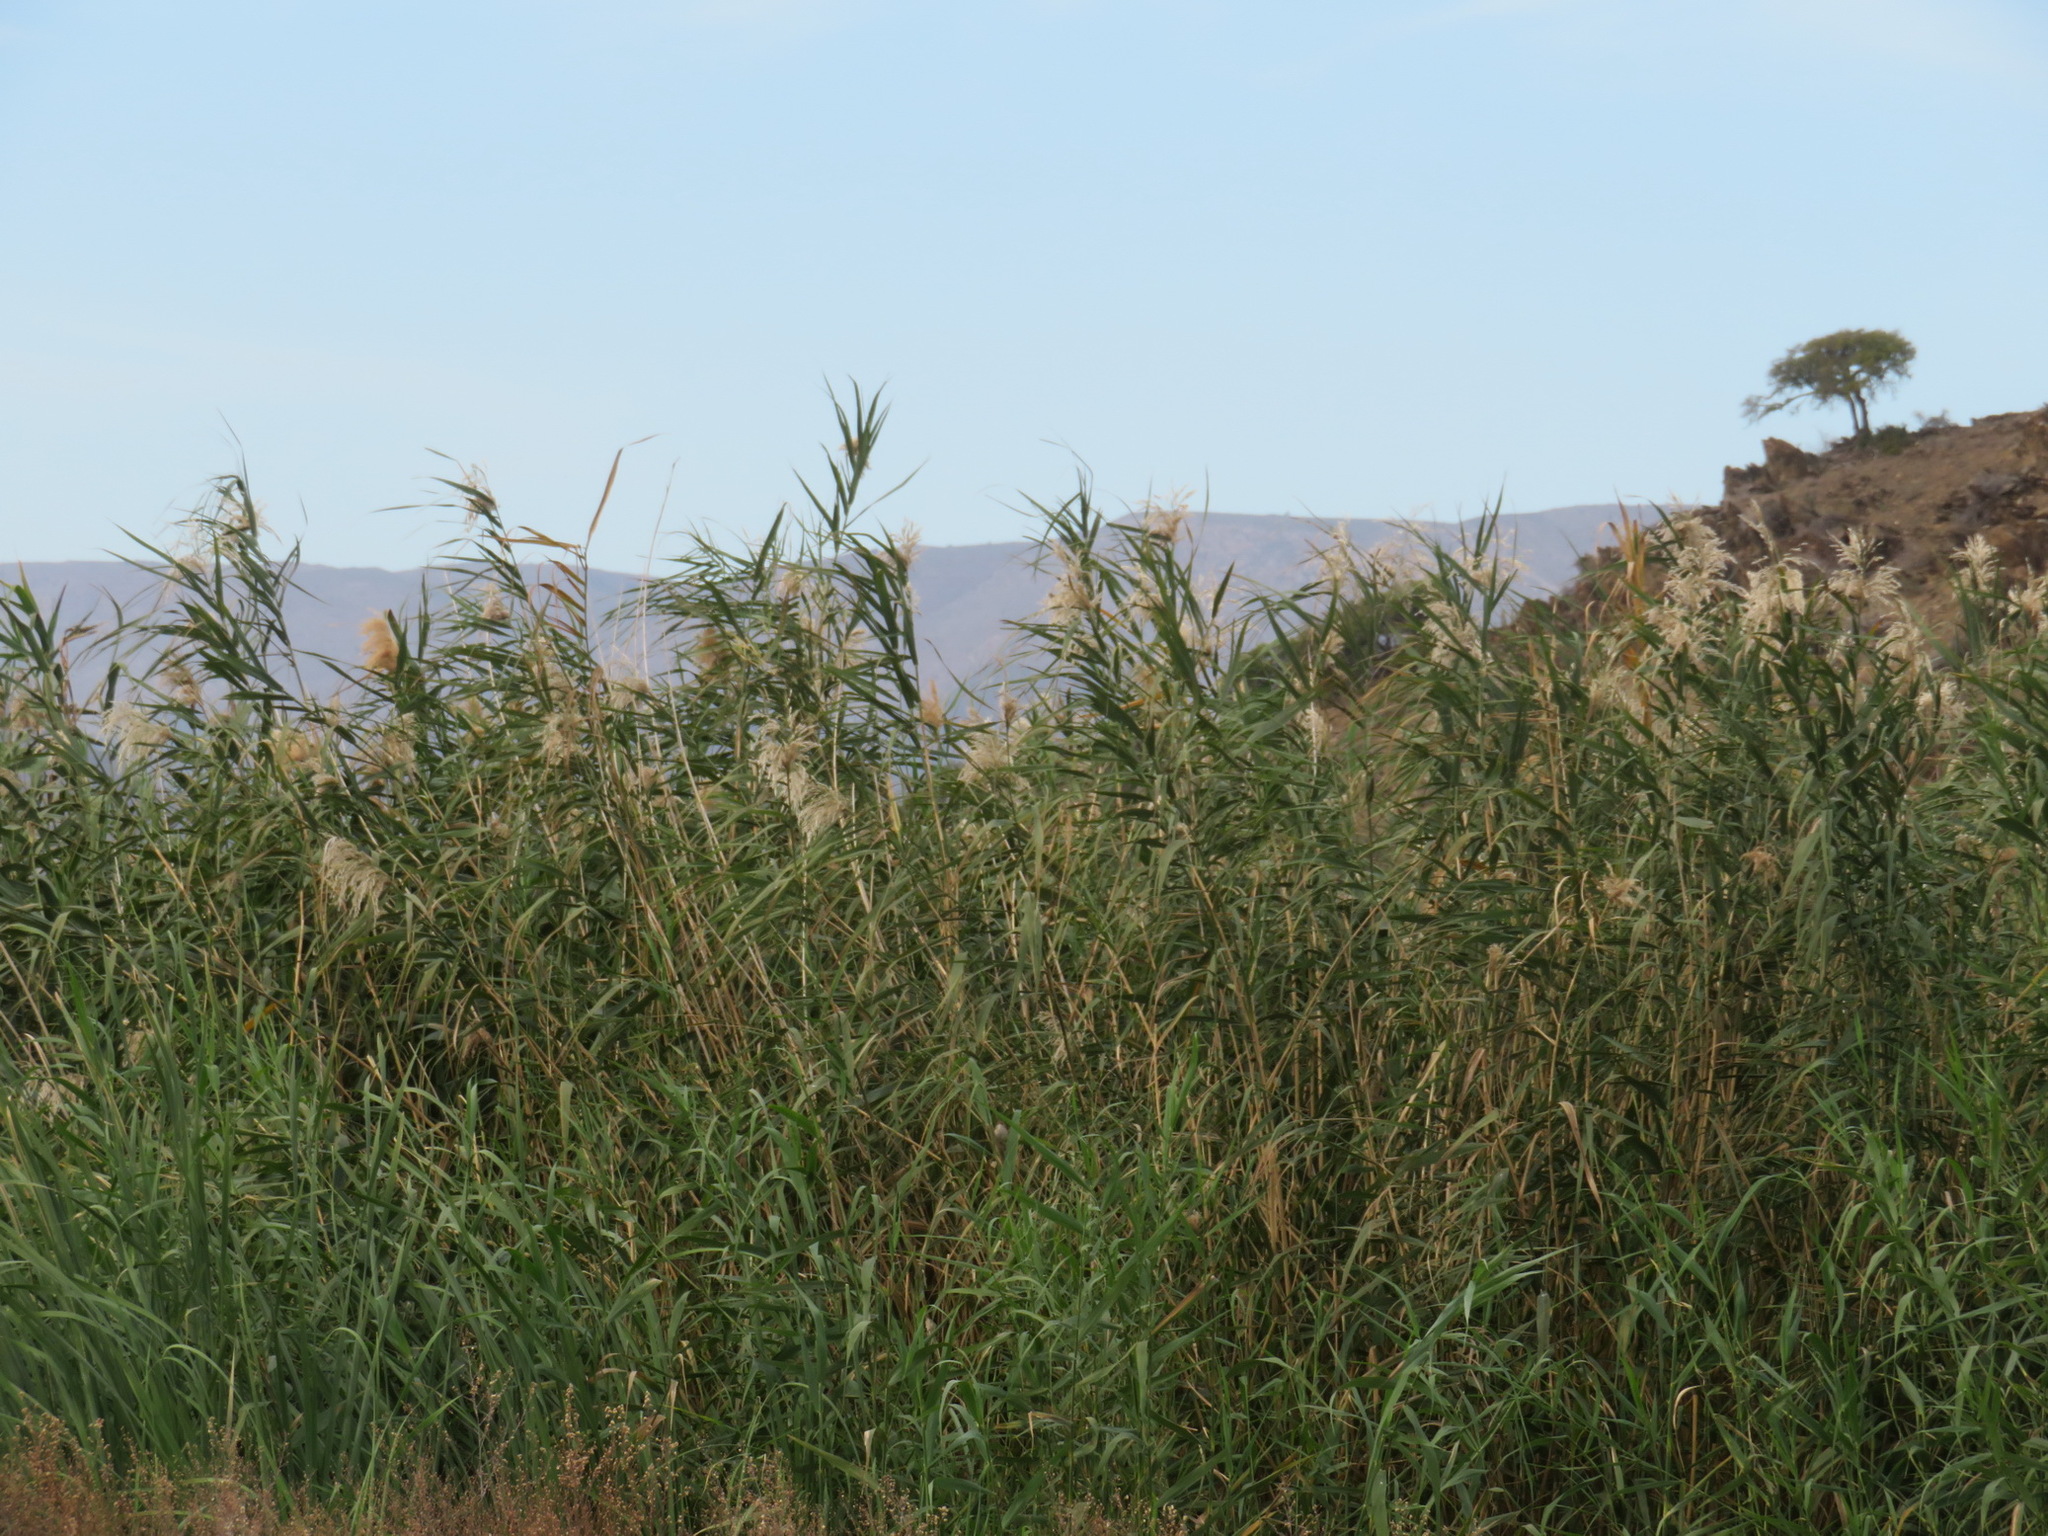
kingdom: Plantae
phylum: Tracheophyta
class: Liliopsida
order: Poales
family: Poaceae
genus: Arundo
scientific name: Arundo donax
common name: Giant reed
